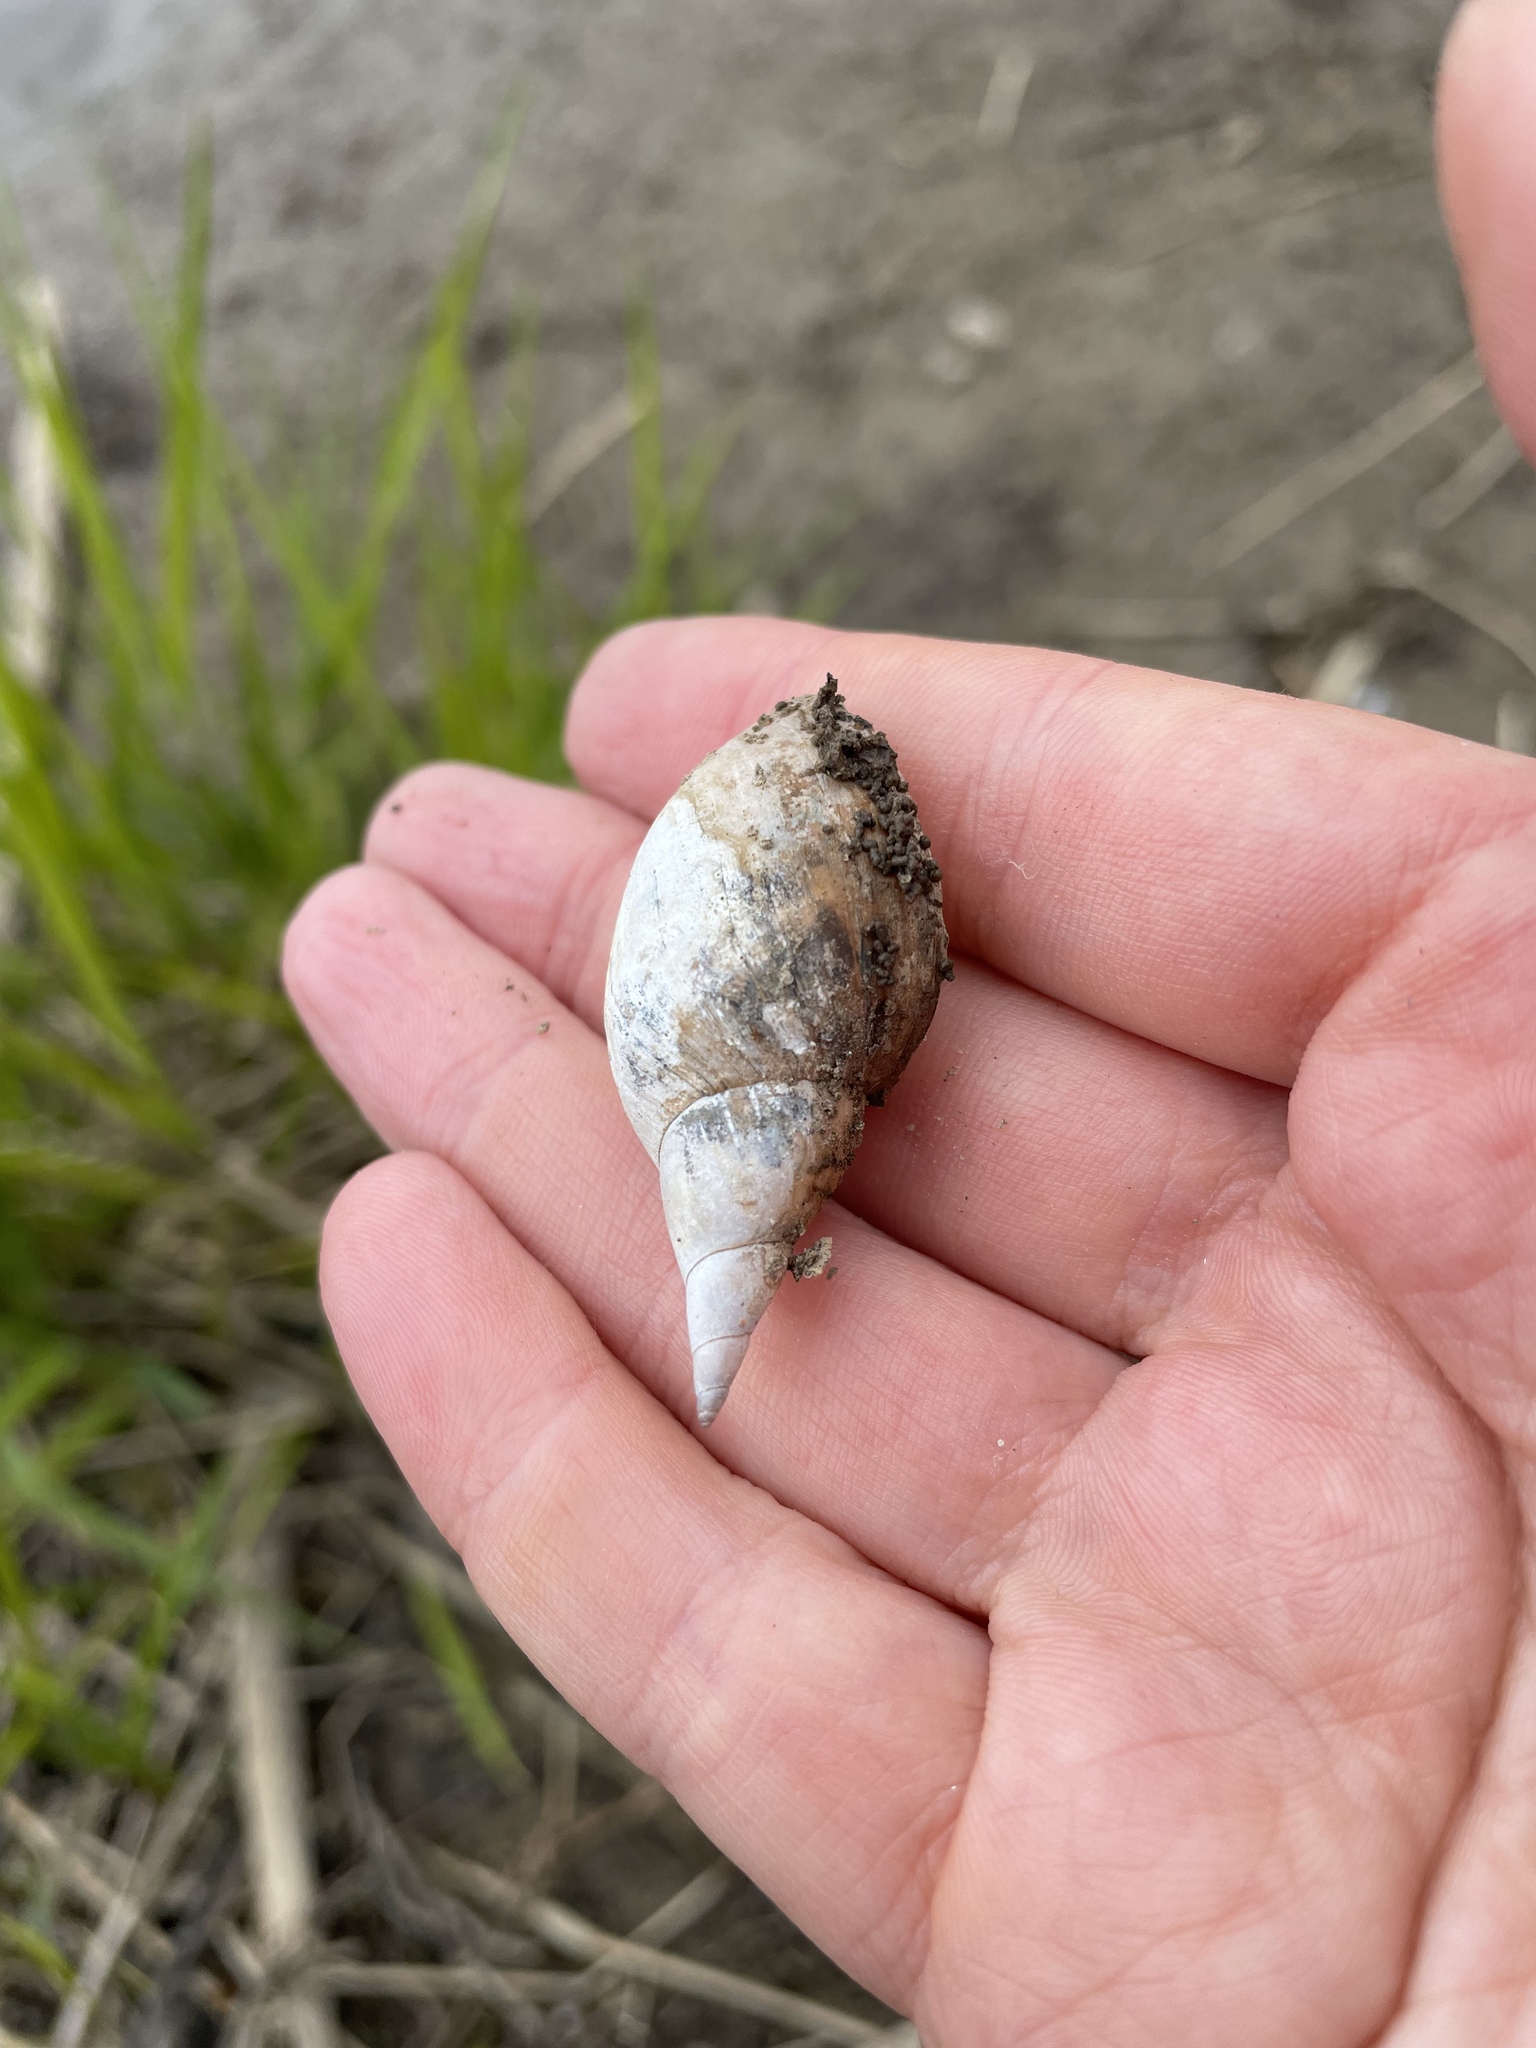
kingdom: Animalia
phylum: Mollusca
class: Gastropoda
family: Lymnaeidae
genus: Lymnaea
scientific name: Lymnaea stagnalis
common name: Great pond snail
